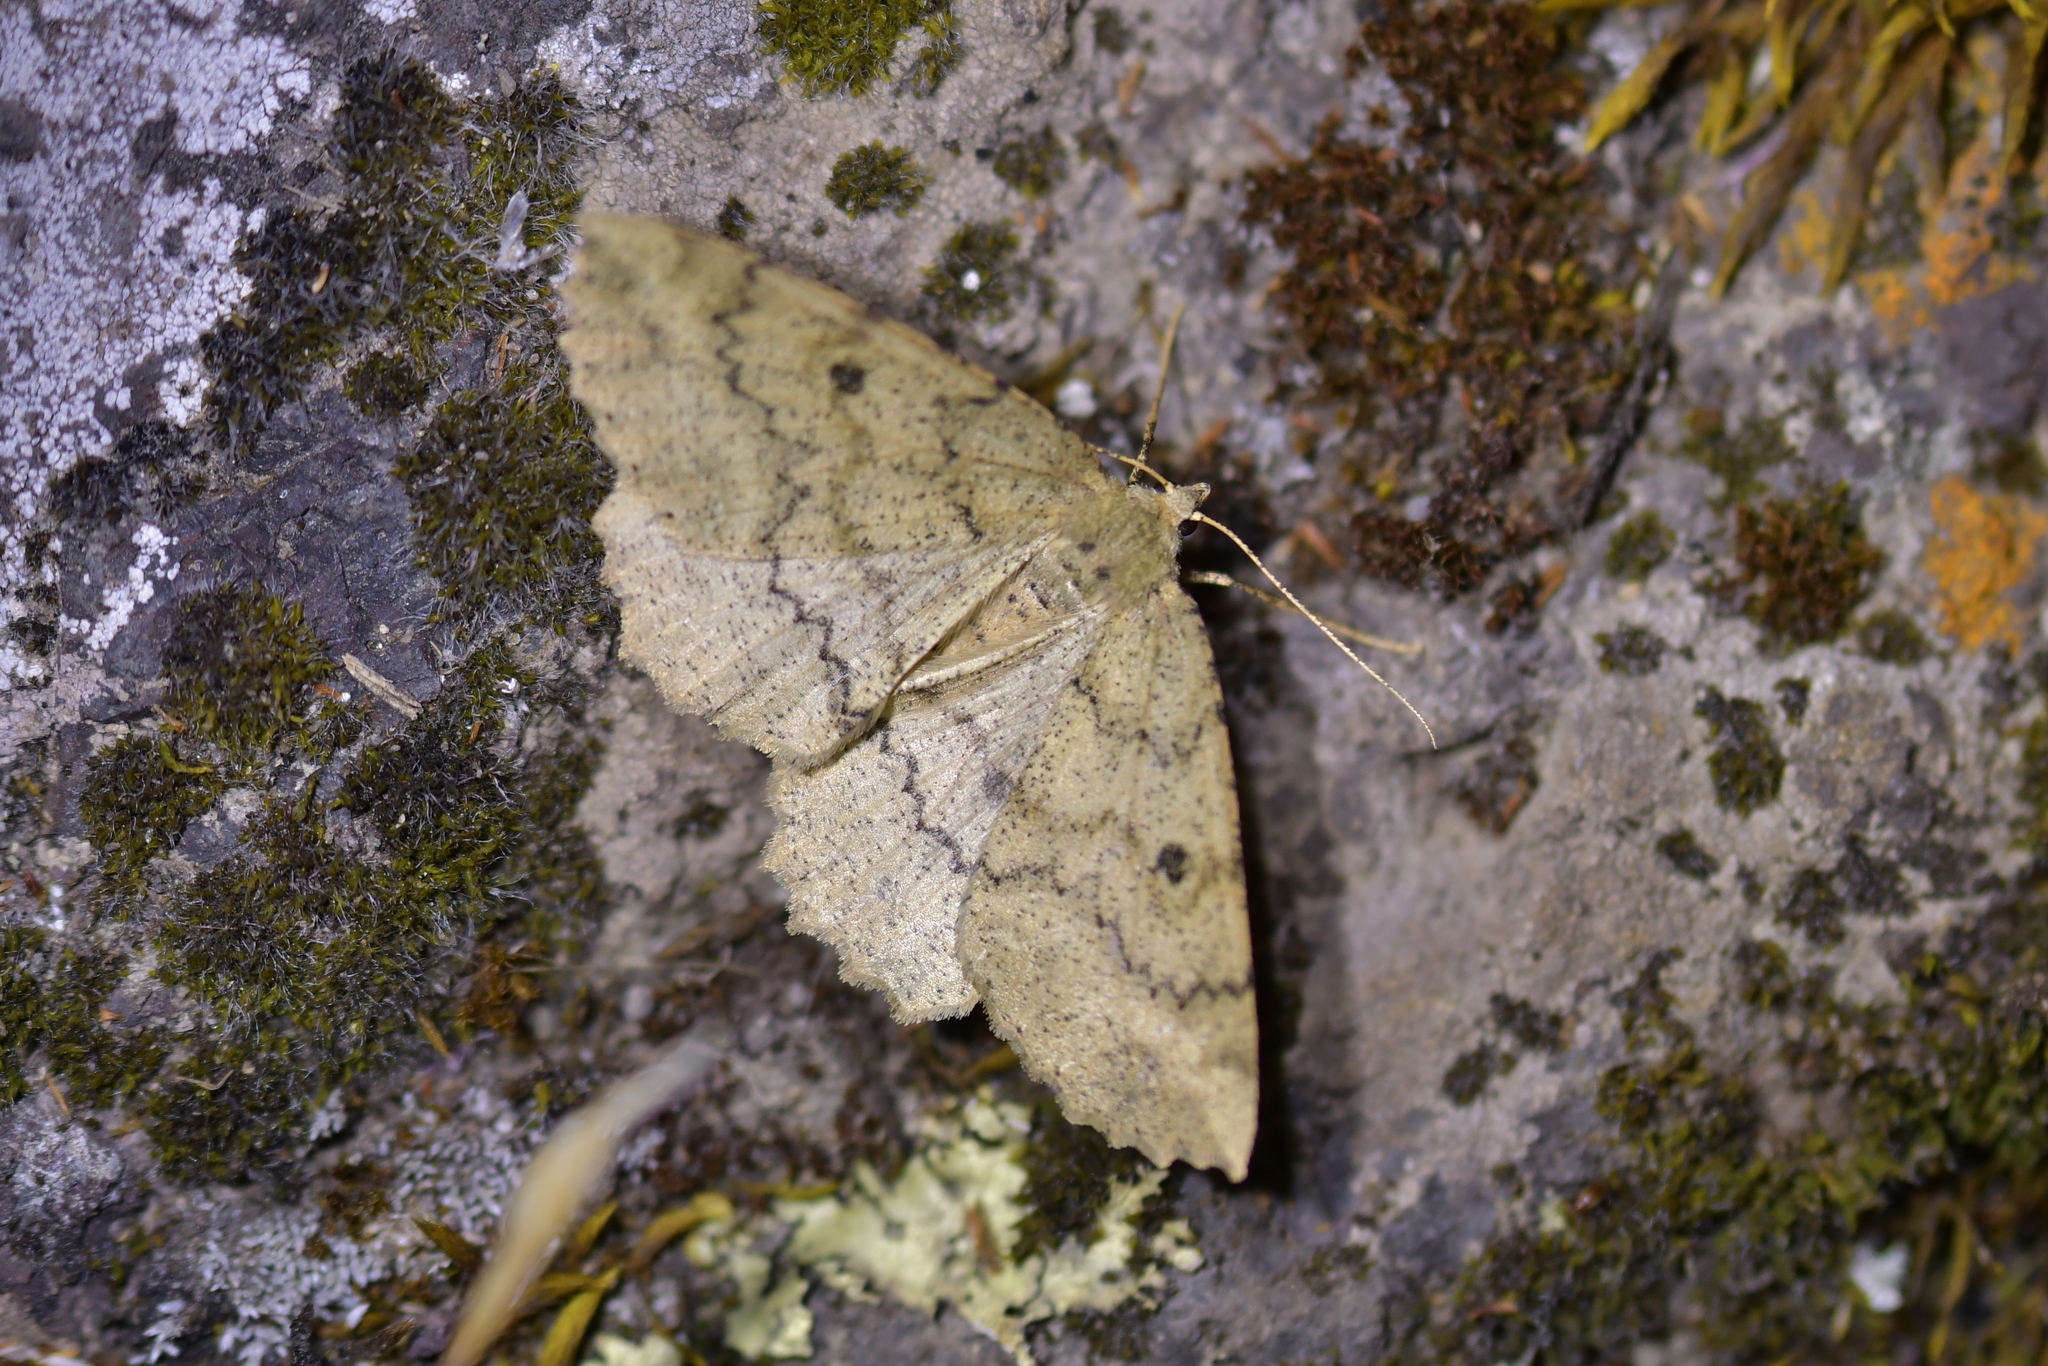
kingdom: Animalia
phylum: Arthropoda
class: Insecta
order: Lepidoptera
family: Geometridae
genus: Cleora
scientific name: Cleora scriptaria
